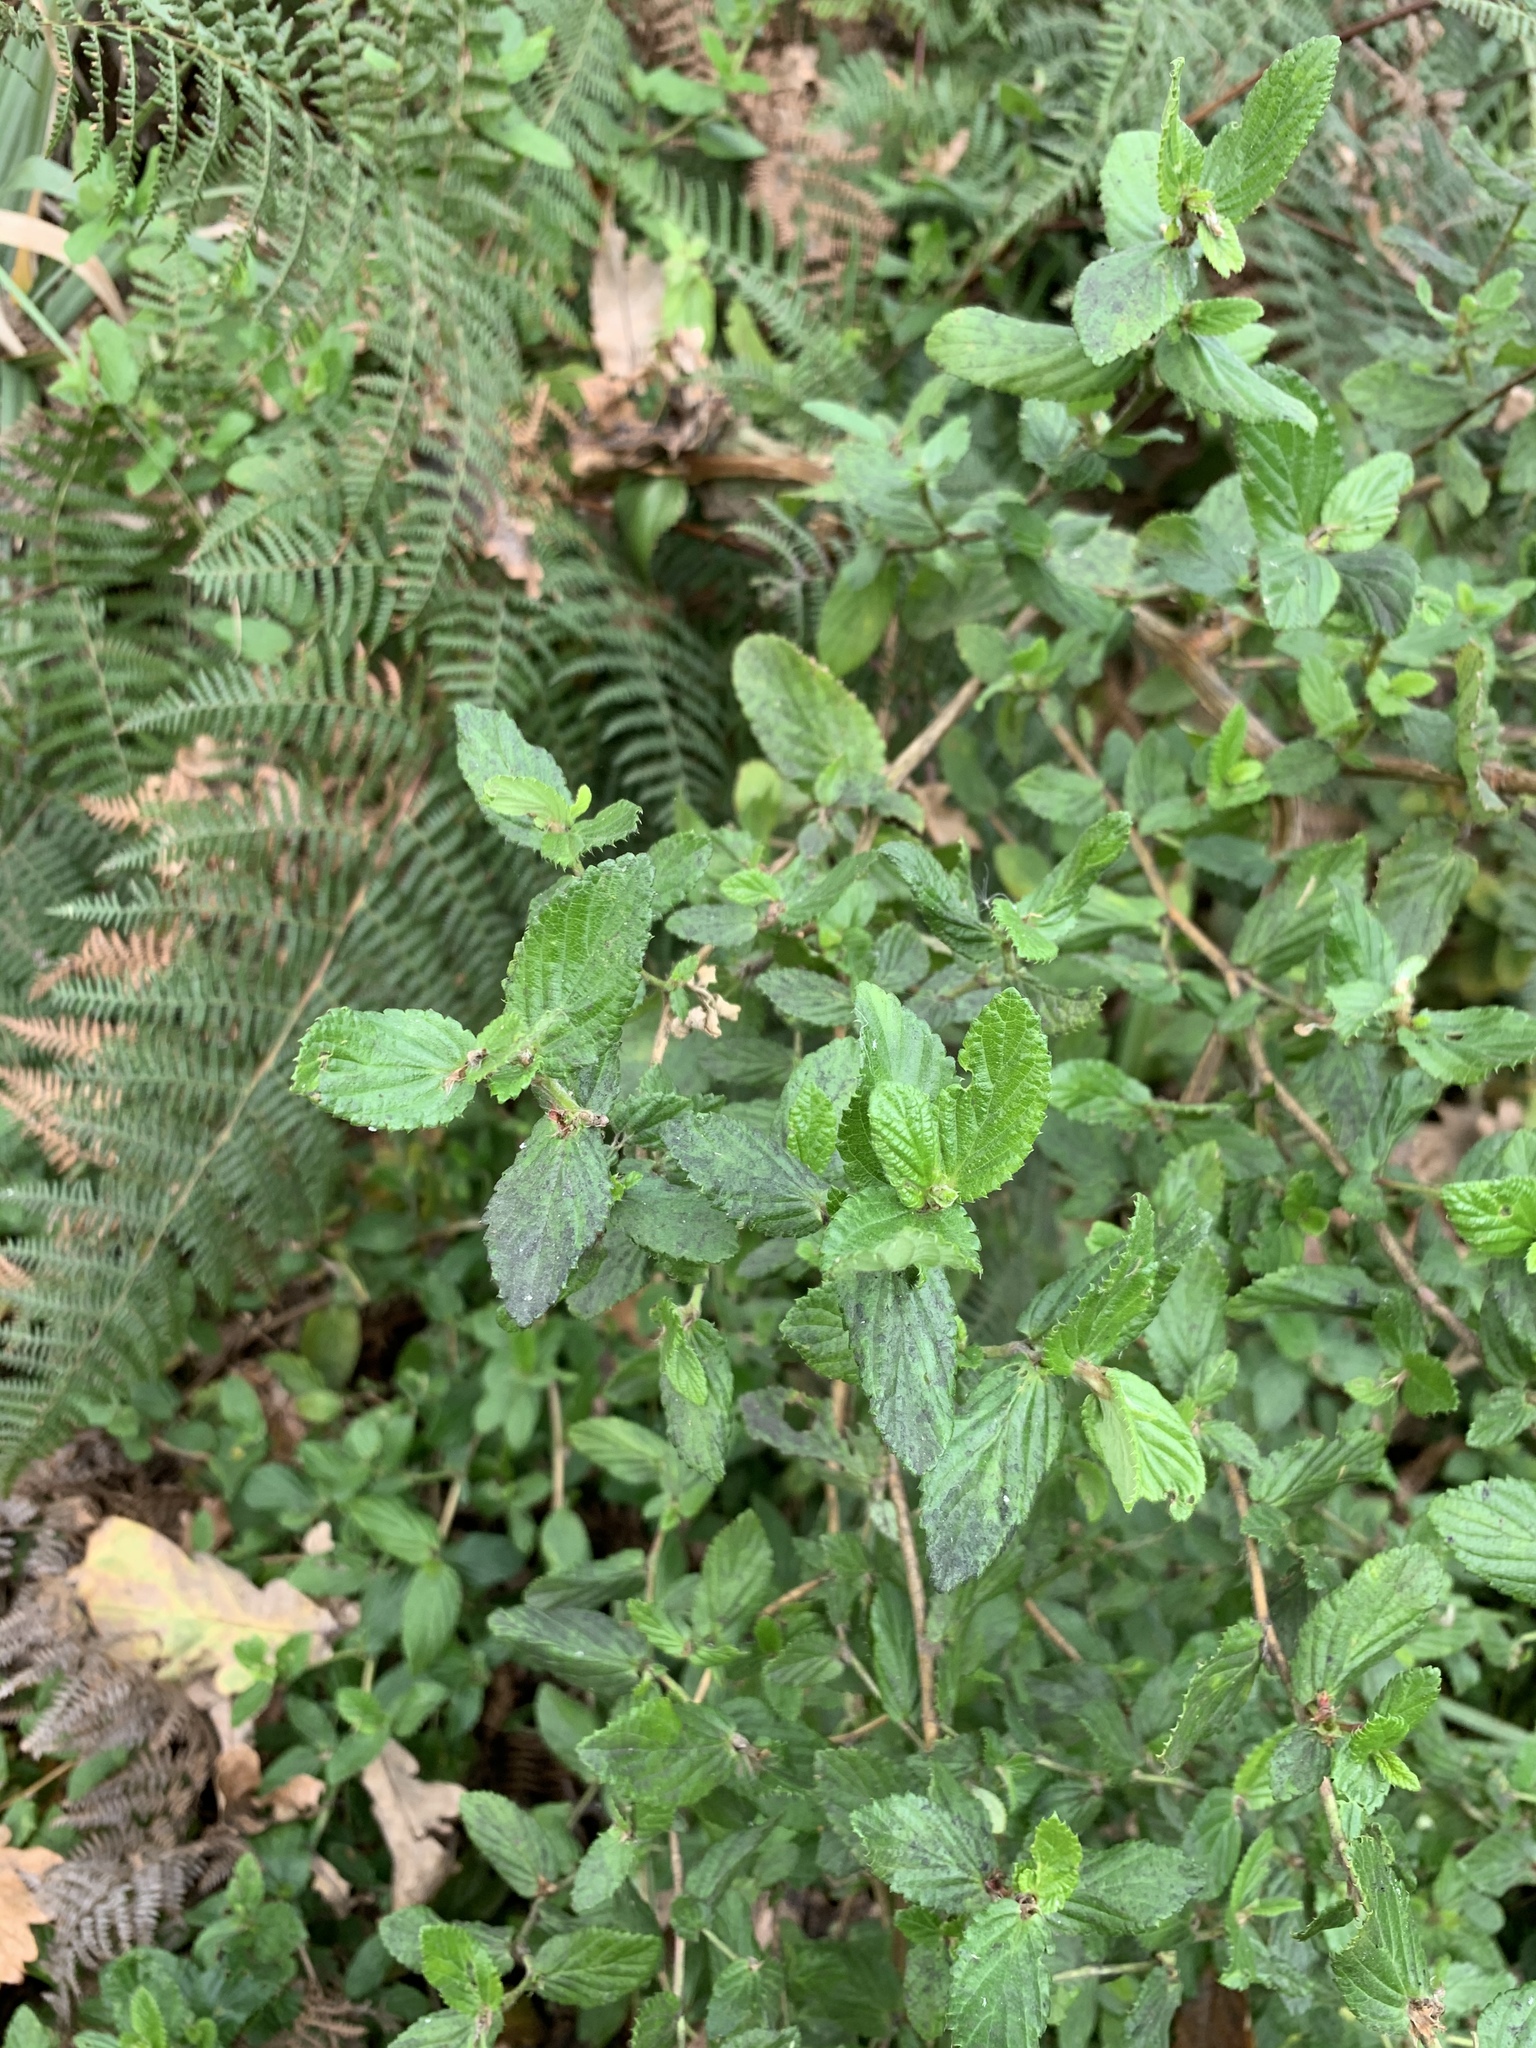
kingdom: Plantae
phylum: Tracheophyta
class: Magnoliopsida
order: Rosales
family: Rosaceae
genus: Cliffortia
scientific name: Cliffortia odorata
